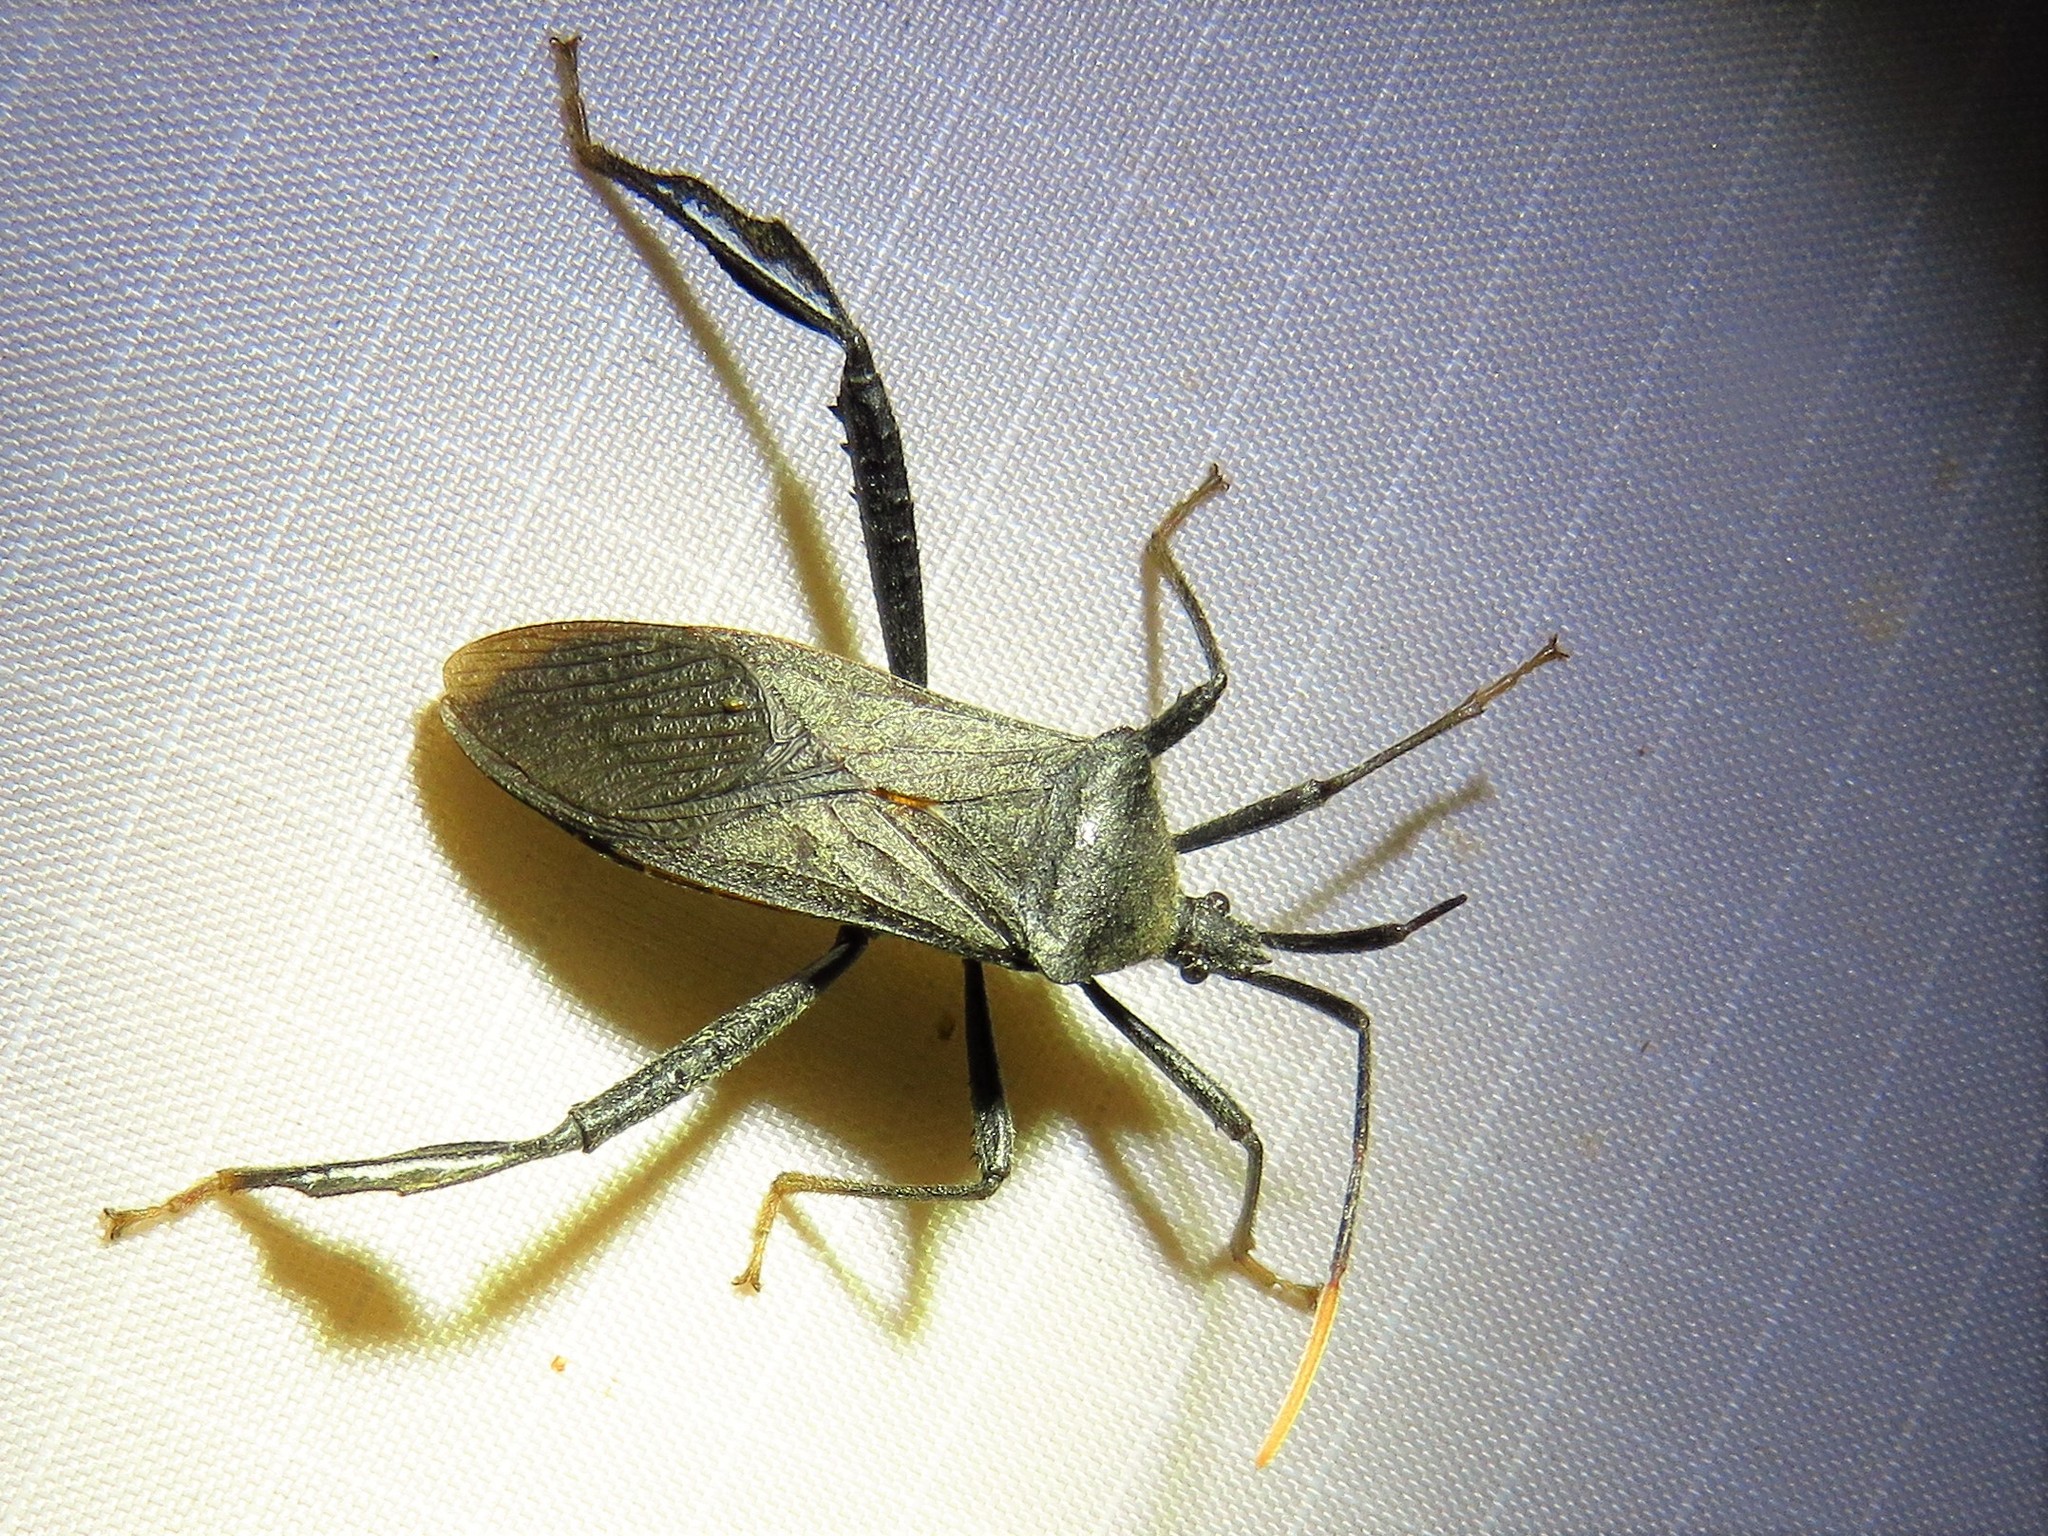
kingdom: Animalia
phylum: Arthropoda
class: Insecta
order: Hemiptera
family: Coreidae
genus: Acanthocephala
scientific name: Acanthocephala terminalis
